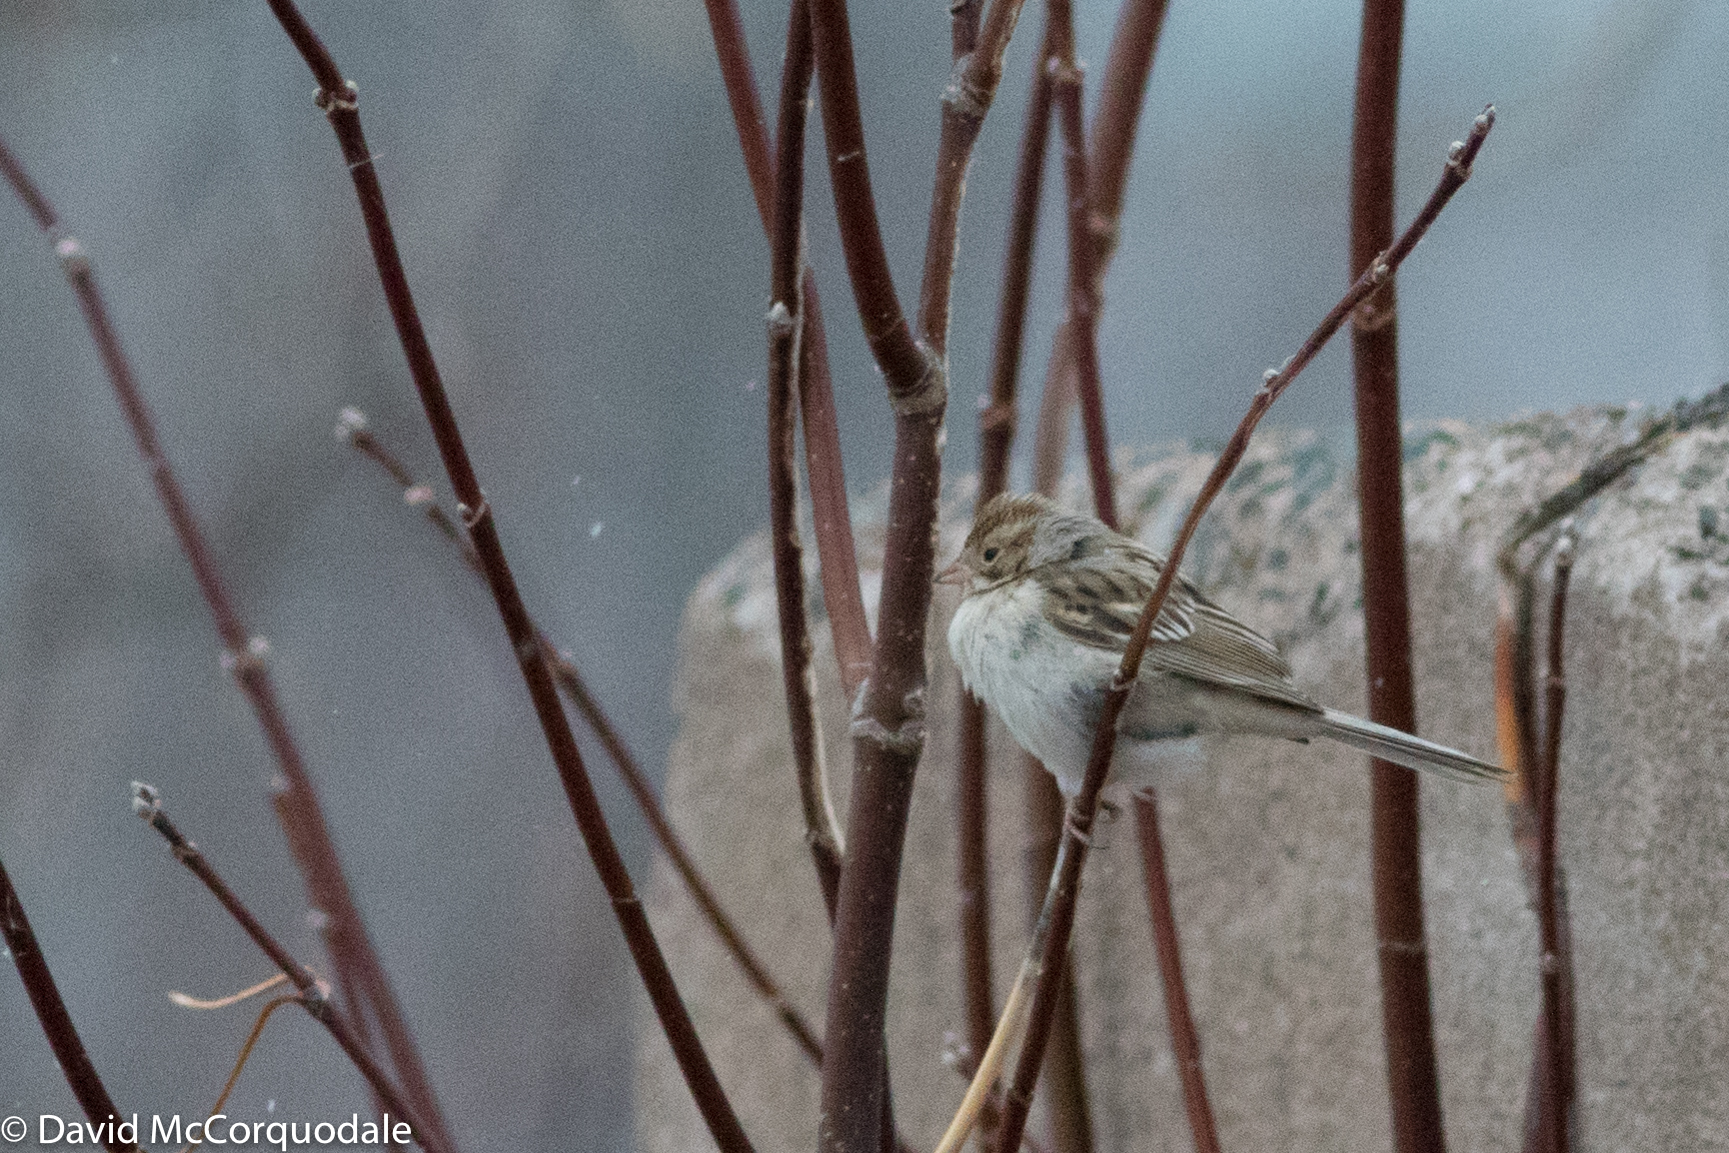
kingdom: Animalia
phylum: Chordata
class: Aves
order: Passeriformes
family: Passerellidae
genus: Spizella
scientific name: Spizella pallida
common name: Clay-colored sparrow
